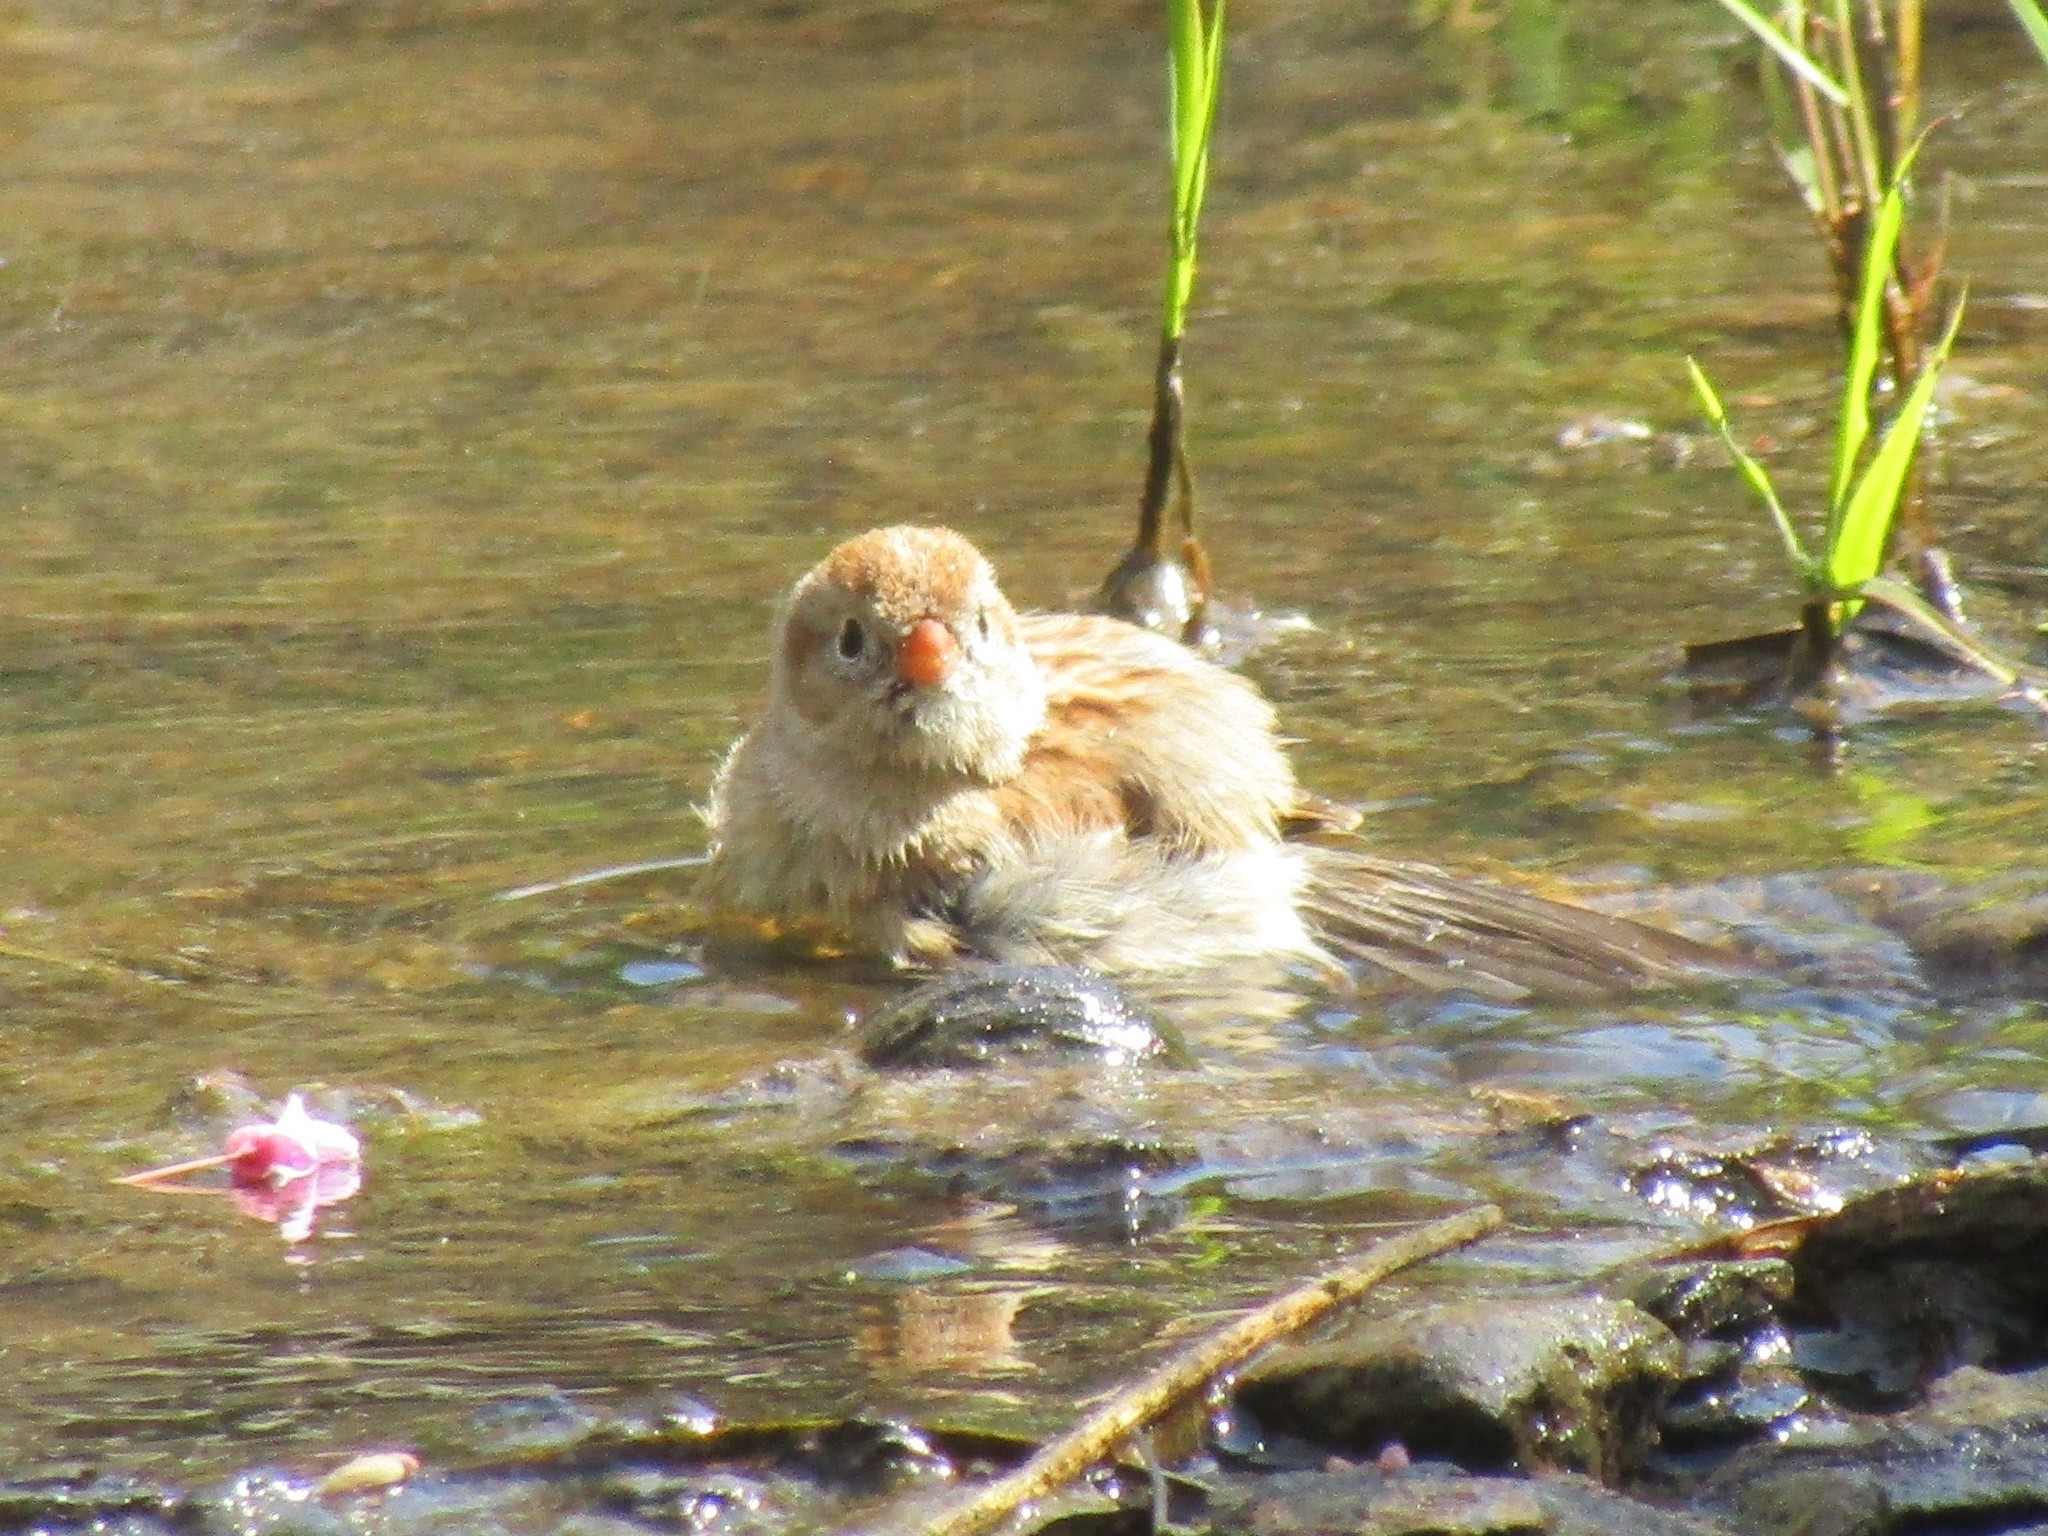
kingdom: Animalia
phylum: Chordata
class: Aves
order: Passeriformes
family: Passerellidae
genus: Spizella
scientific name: Spizella pusilla
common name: Field sparrow
